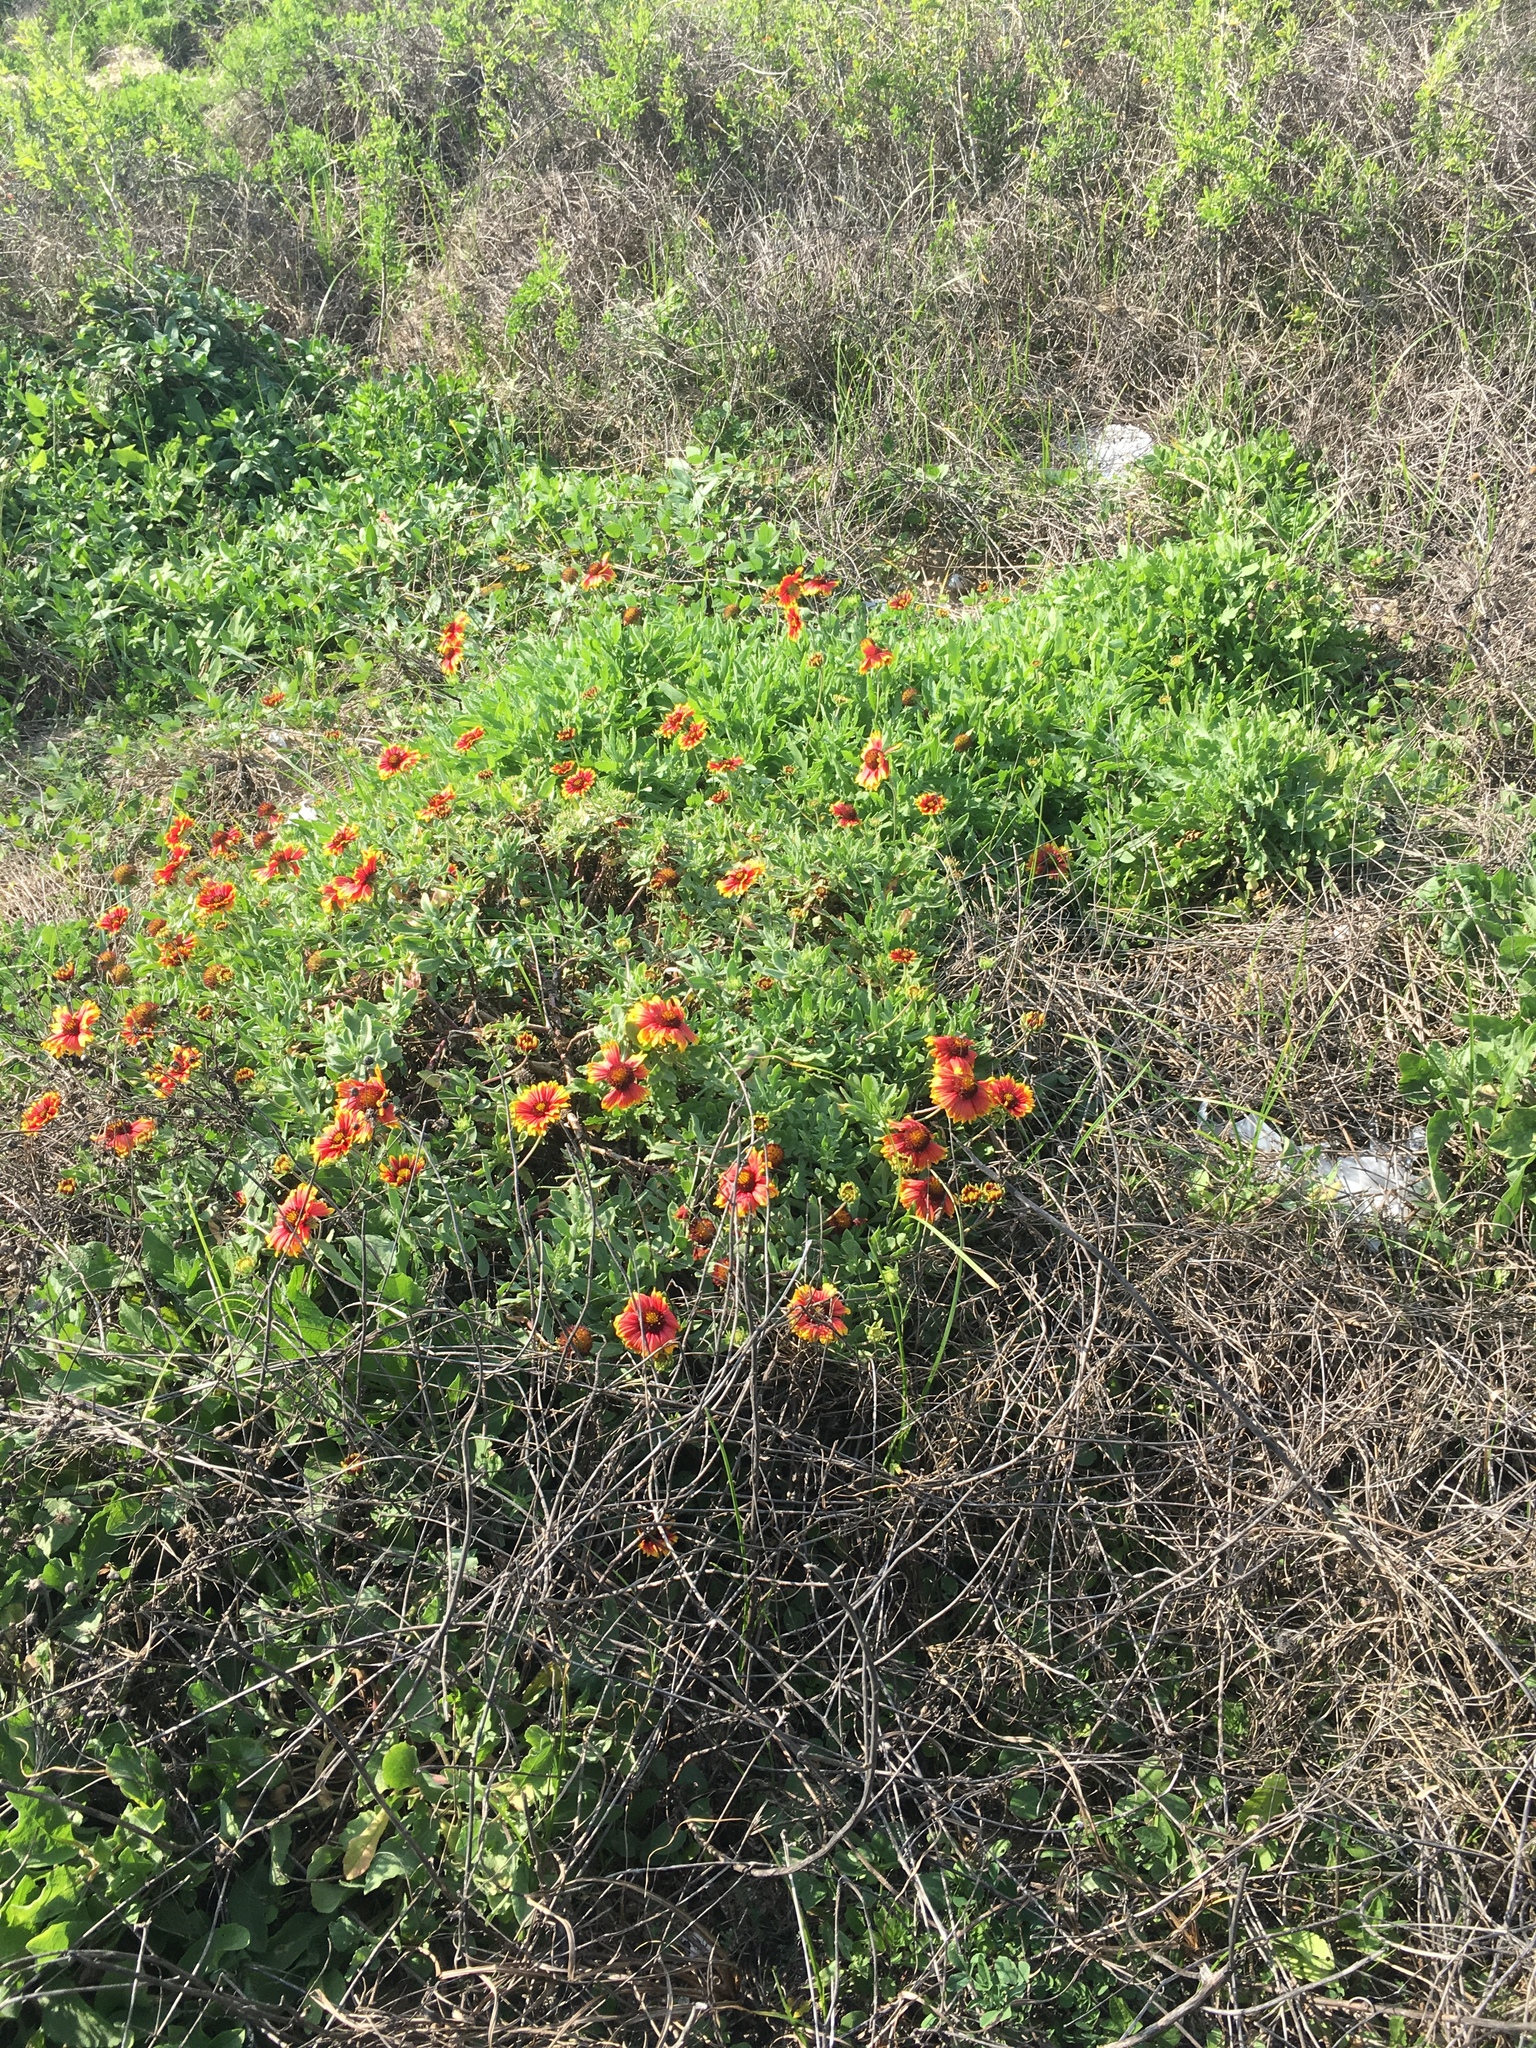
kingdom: Plantae
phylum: Tracheophyta
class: Magnoliopsida
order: Asterales
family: Asteraceae
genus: Gaillardia
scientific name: Gaillardia pulchella
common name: Firewheel
